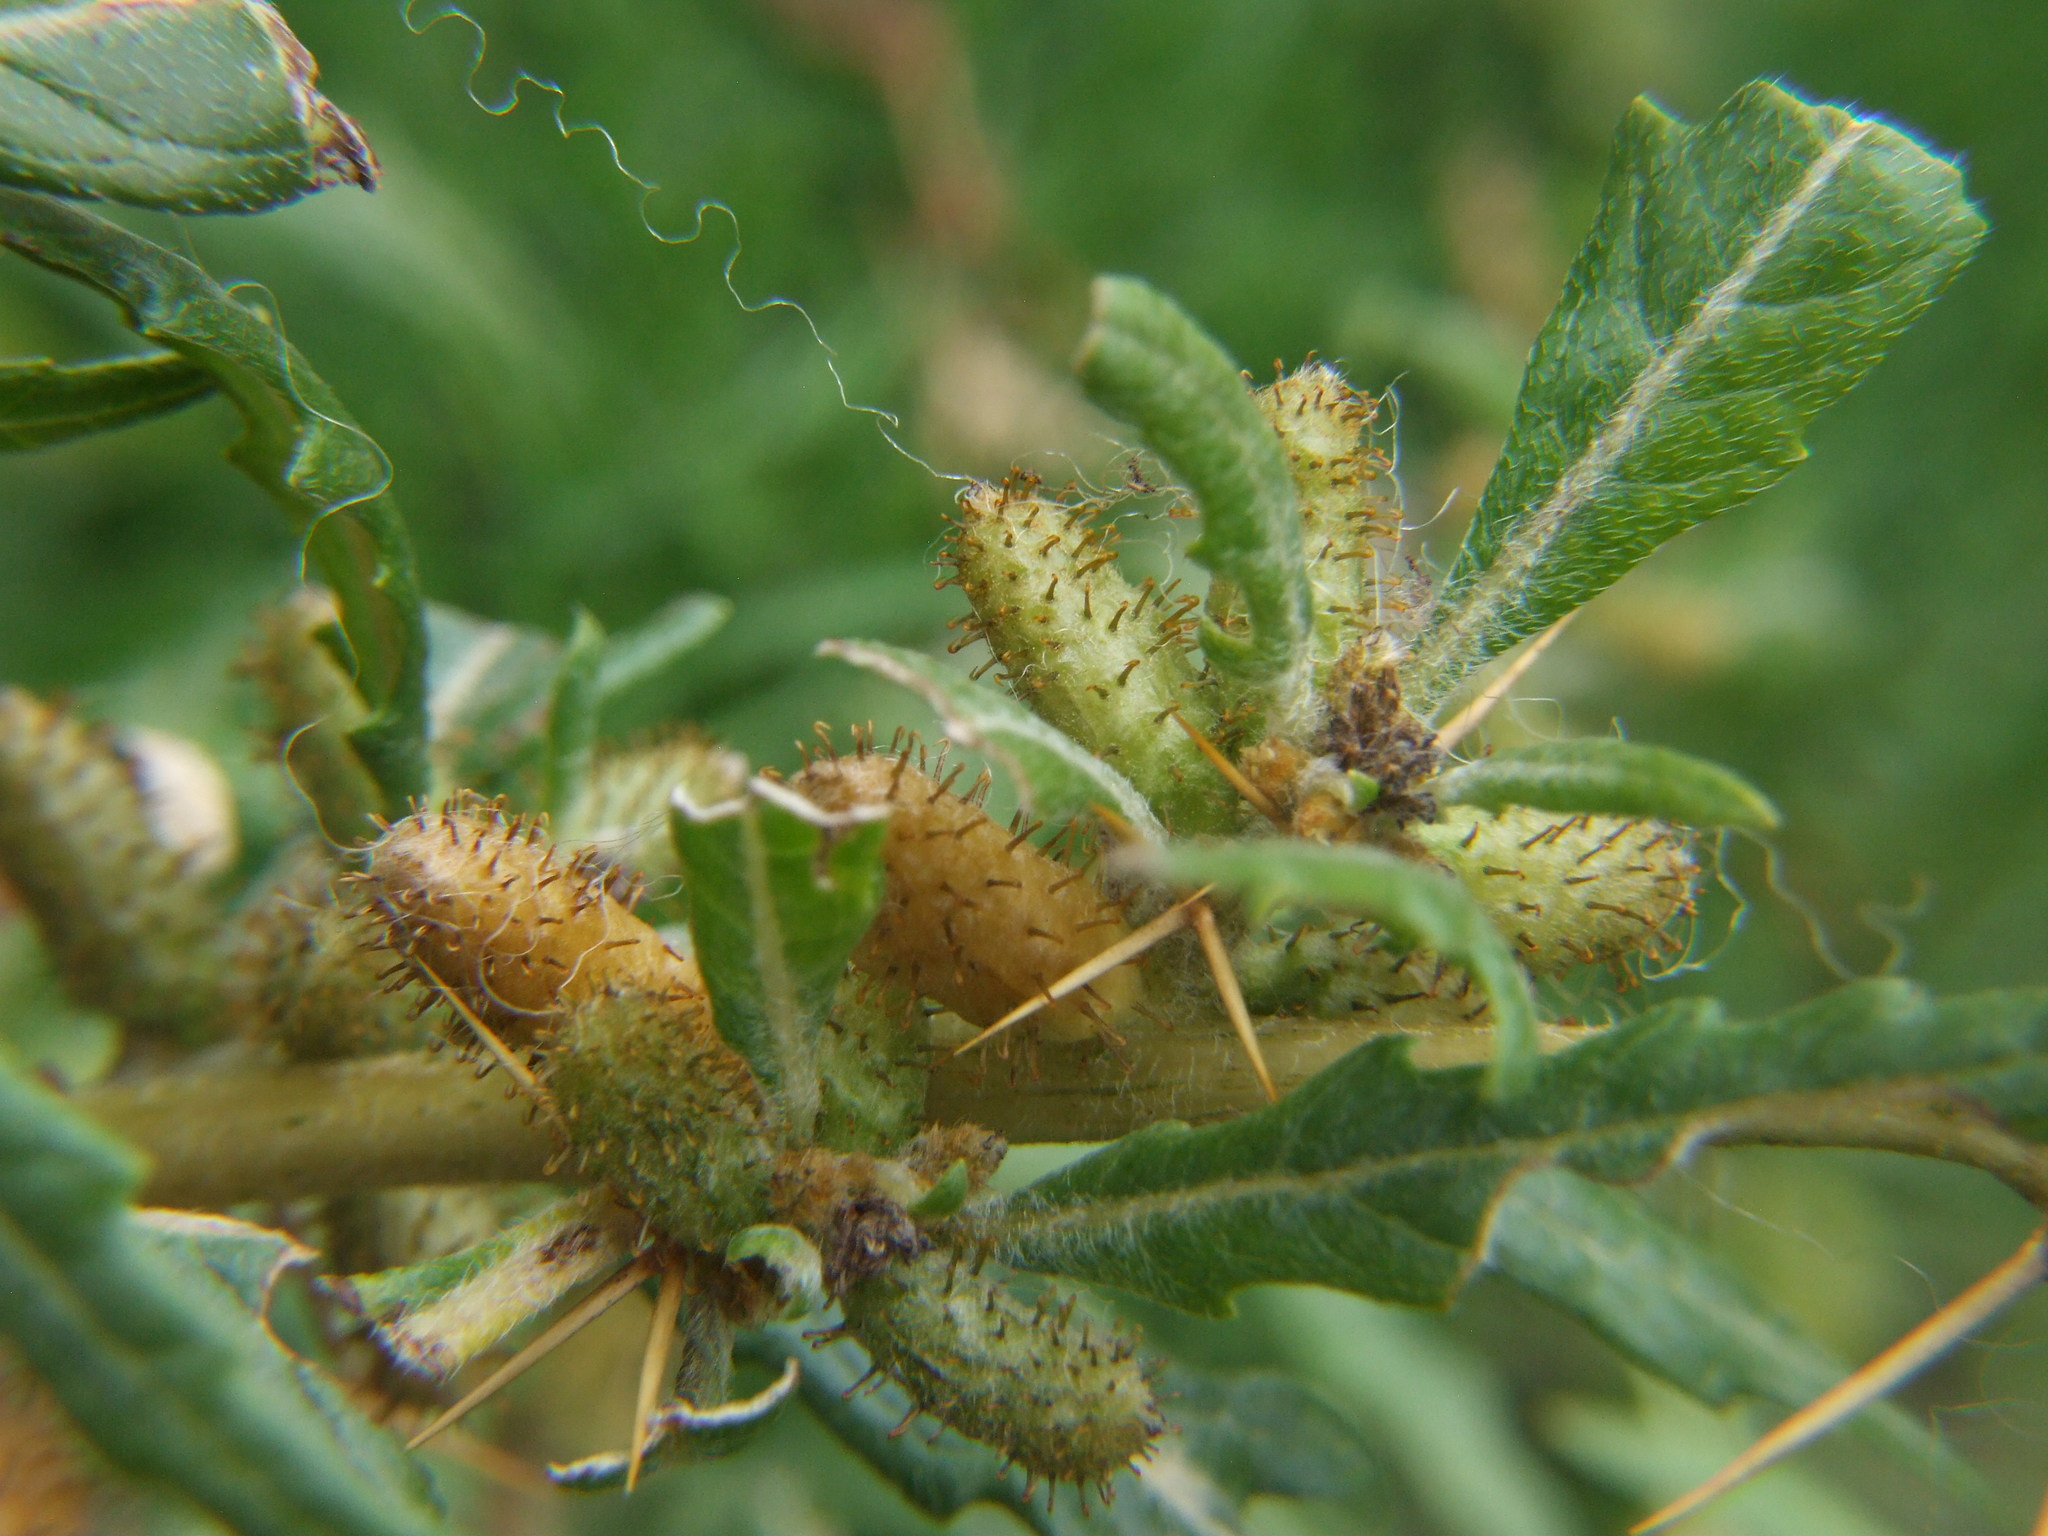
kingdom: Plantae
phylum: Tracheophyta
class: Magnoliopsida
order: Asterales
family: Asteraceae
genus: Xanthium
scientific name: Xanthium spinosum
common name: Spiny cocklebur
